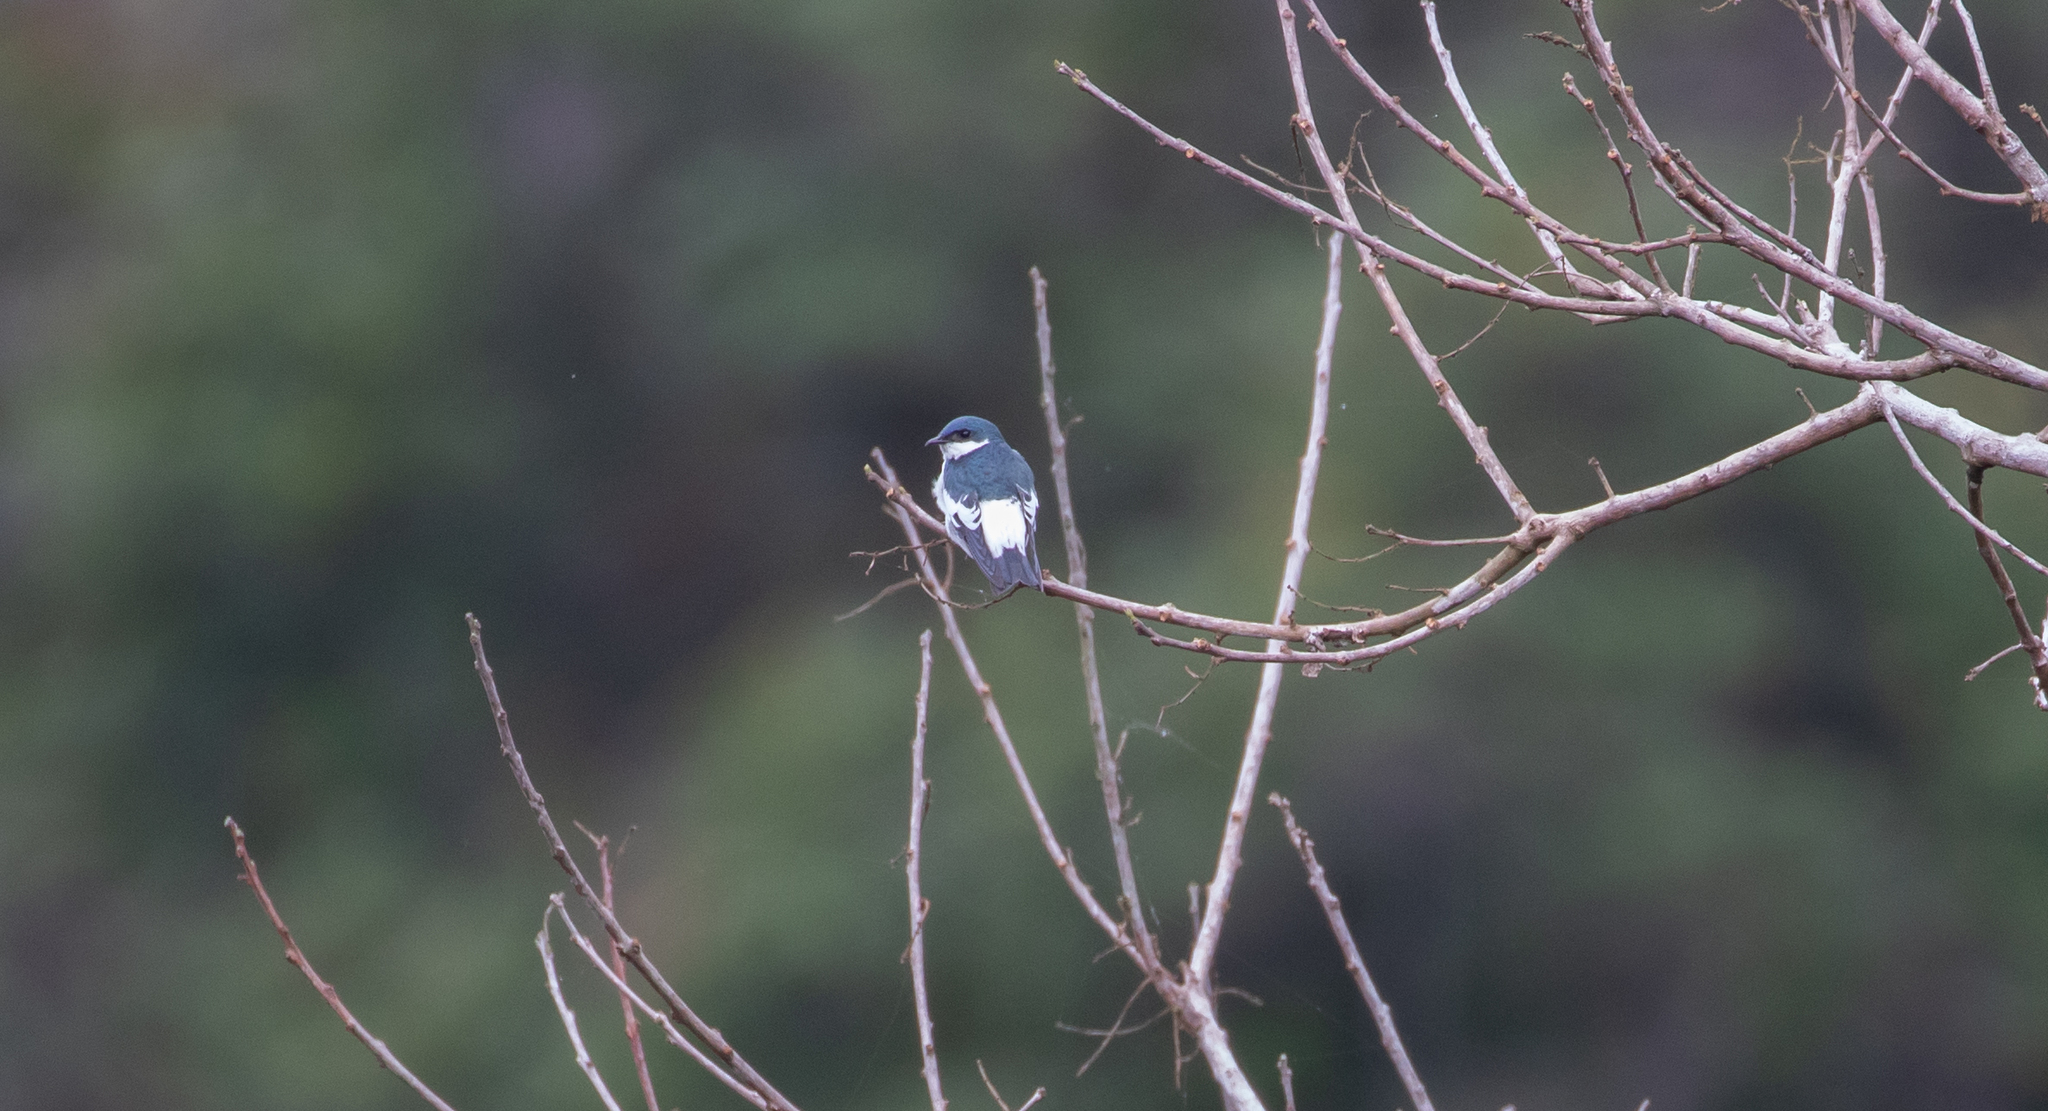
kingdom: Animalia
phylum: Chordata
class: Aves
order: Passeriformes
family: Hirundinidae
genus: Tachycineta
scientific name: Tachycineta albiventer
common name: White-winged swallow
